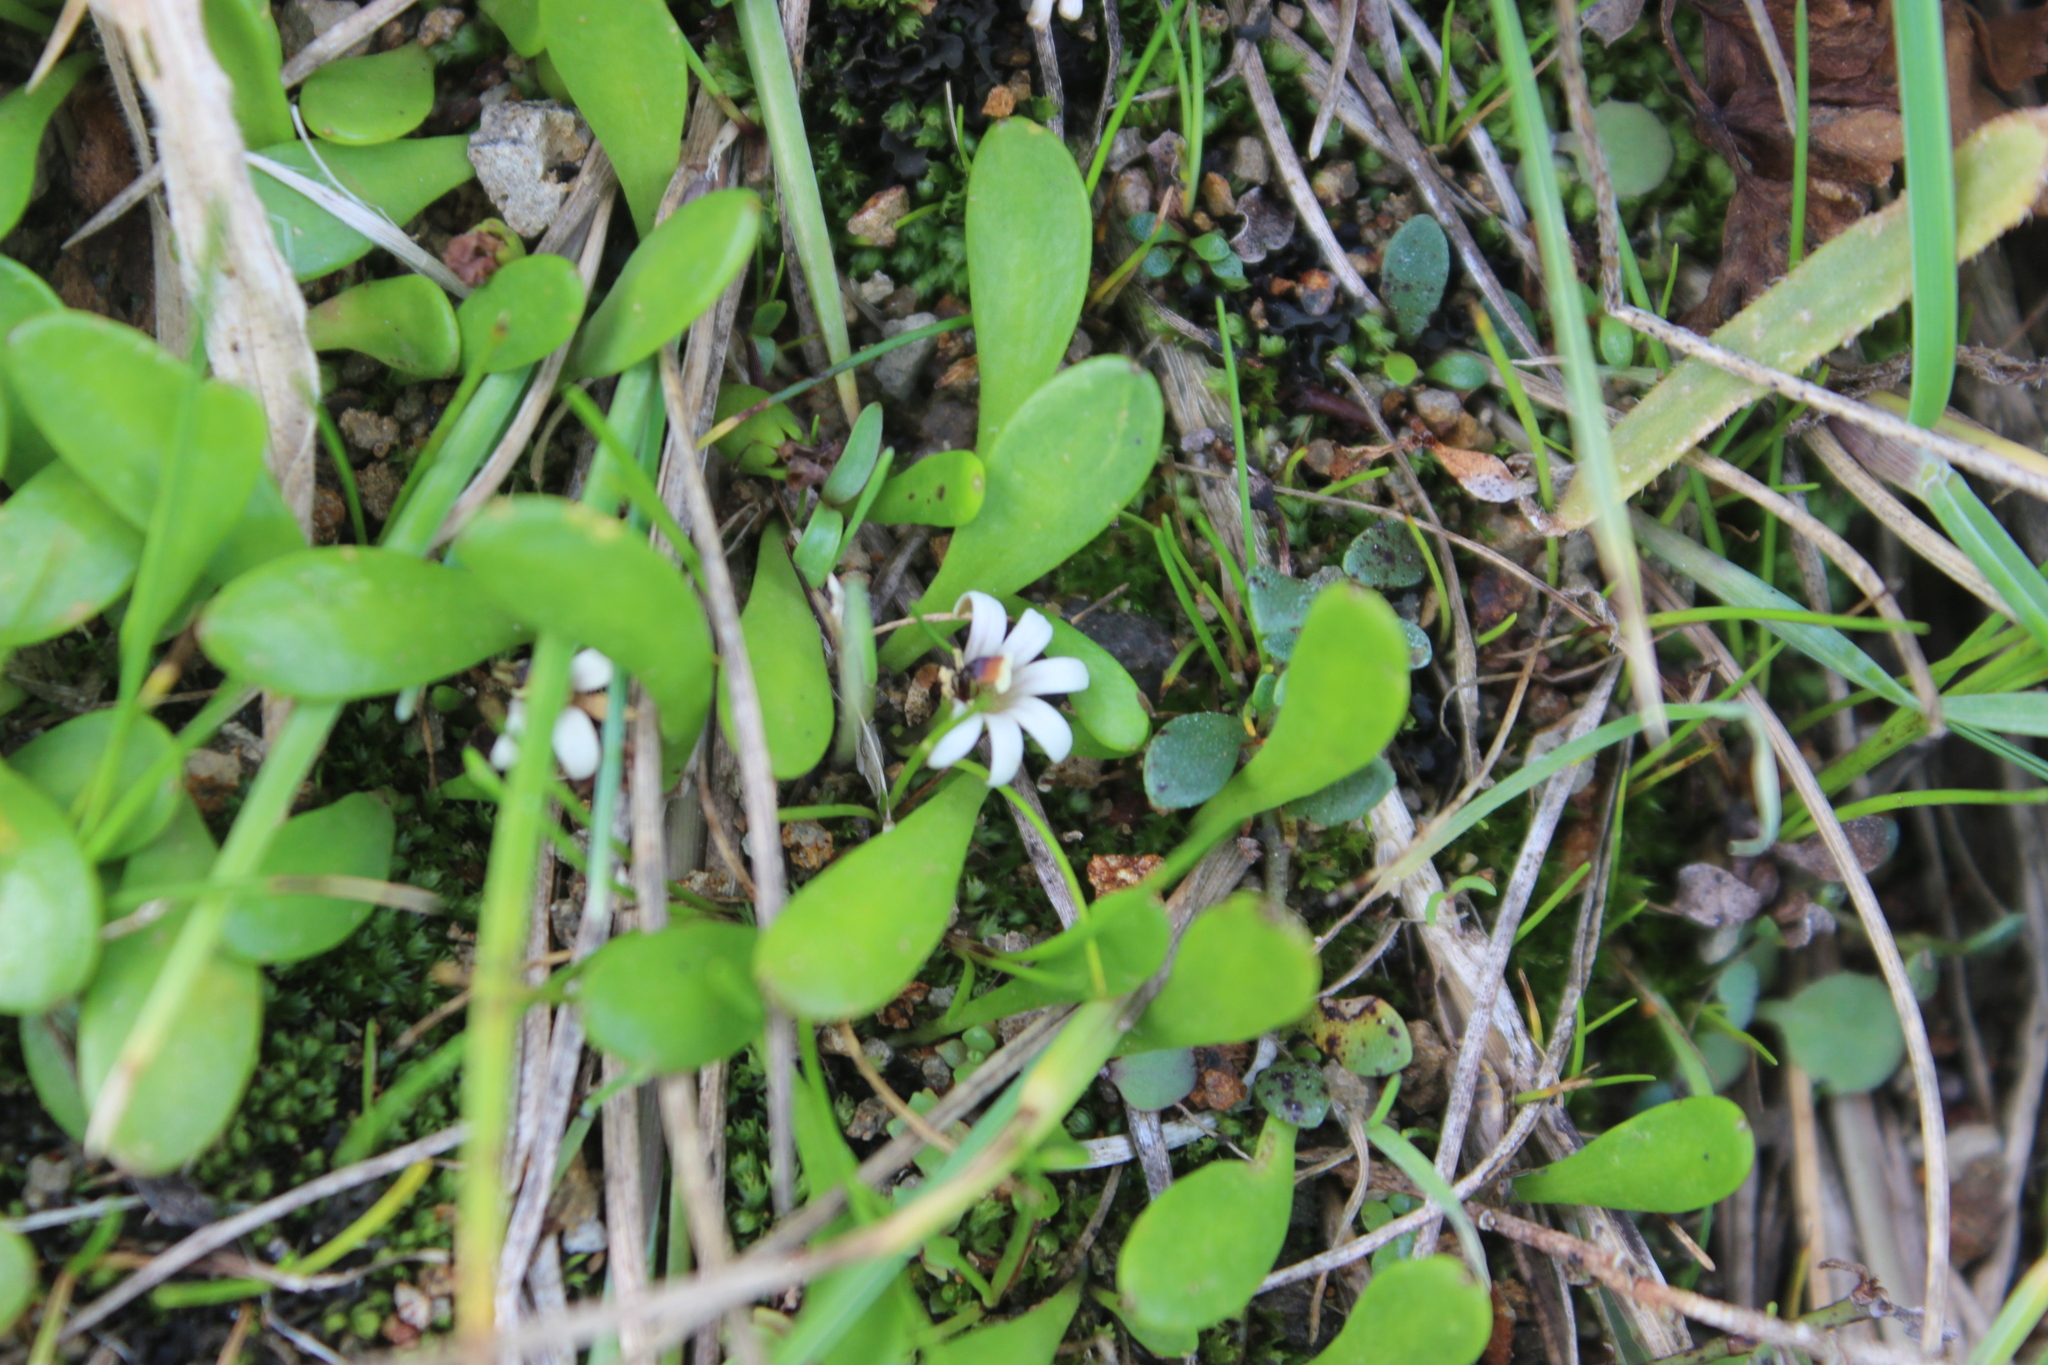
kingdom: Plantae
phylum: Tracheophyta
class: Magnoliopsida
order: Asterales
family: Goodeniaceae
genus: Goodenia
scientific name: Goodenia radicans
